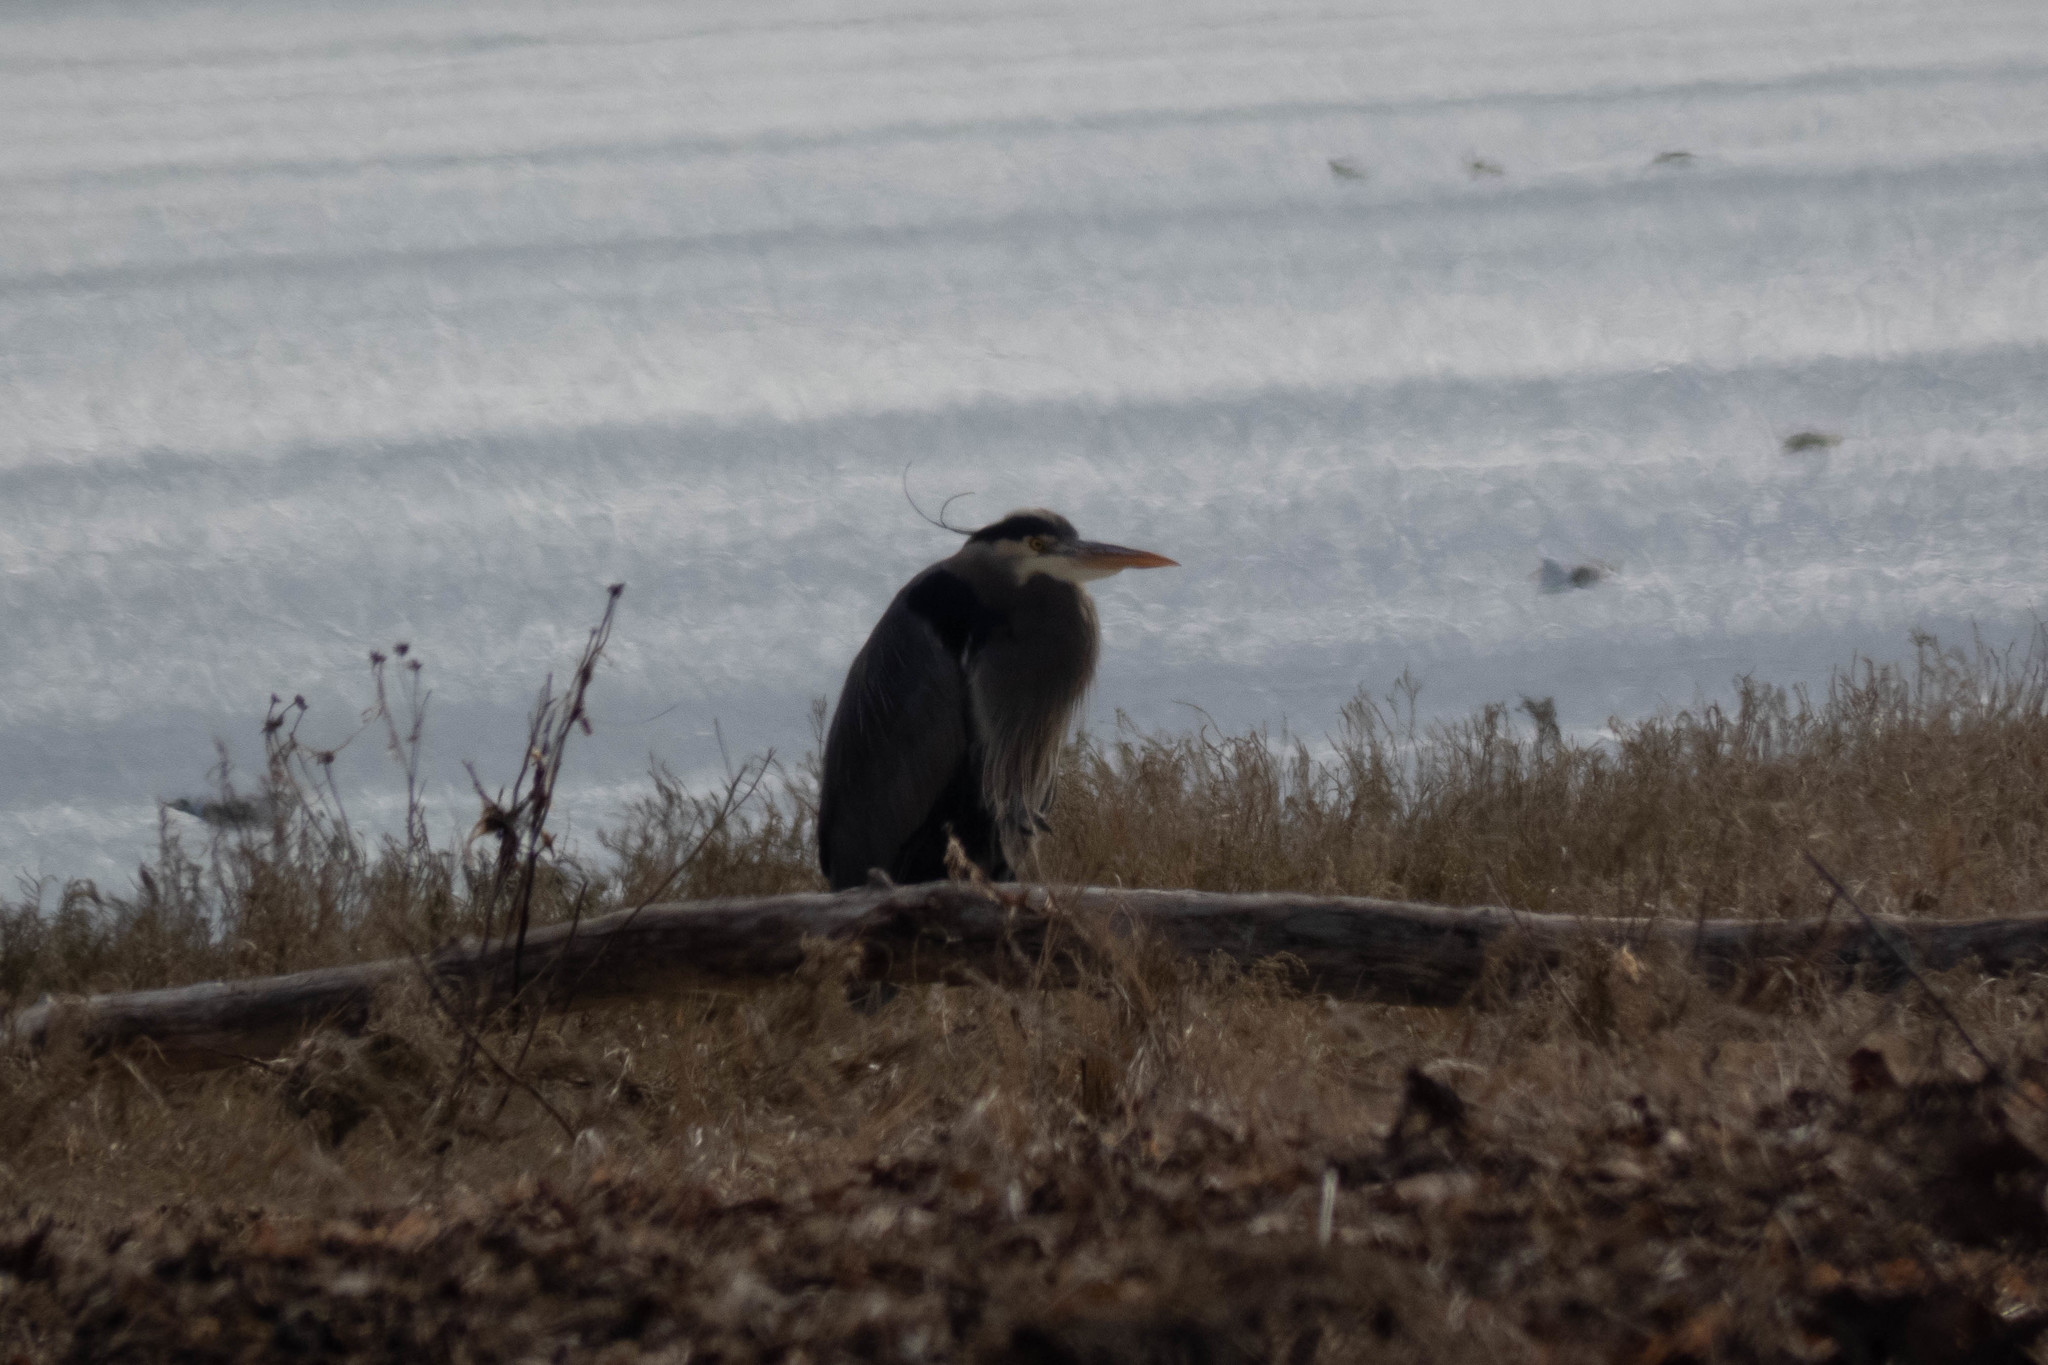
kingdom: Animalia
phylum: Chordata
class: Aves
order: Pelecaniformes
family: Ardeidae
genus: Ardea
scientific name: Ardea herodias
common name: Great blue heron
